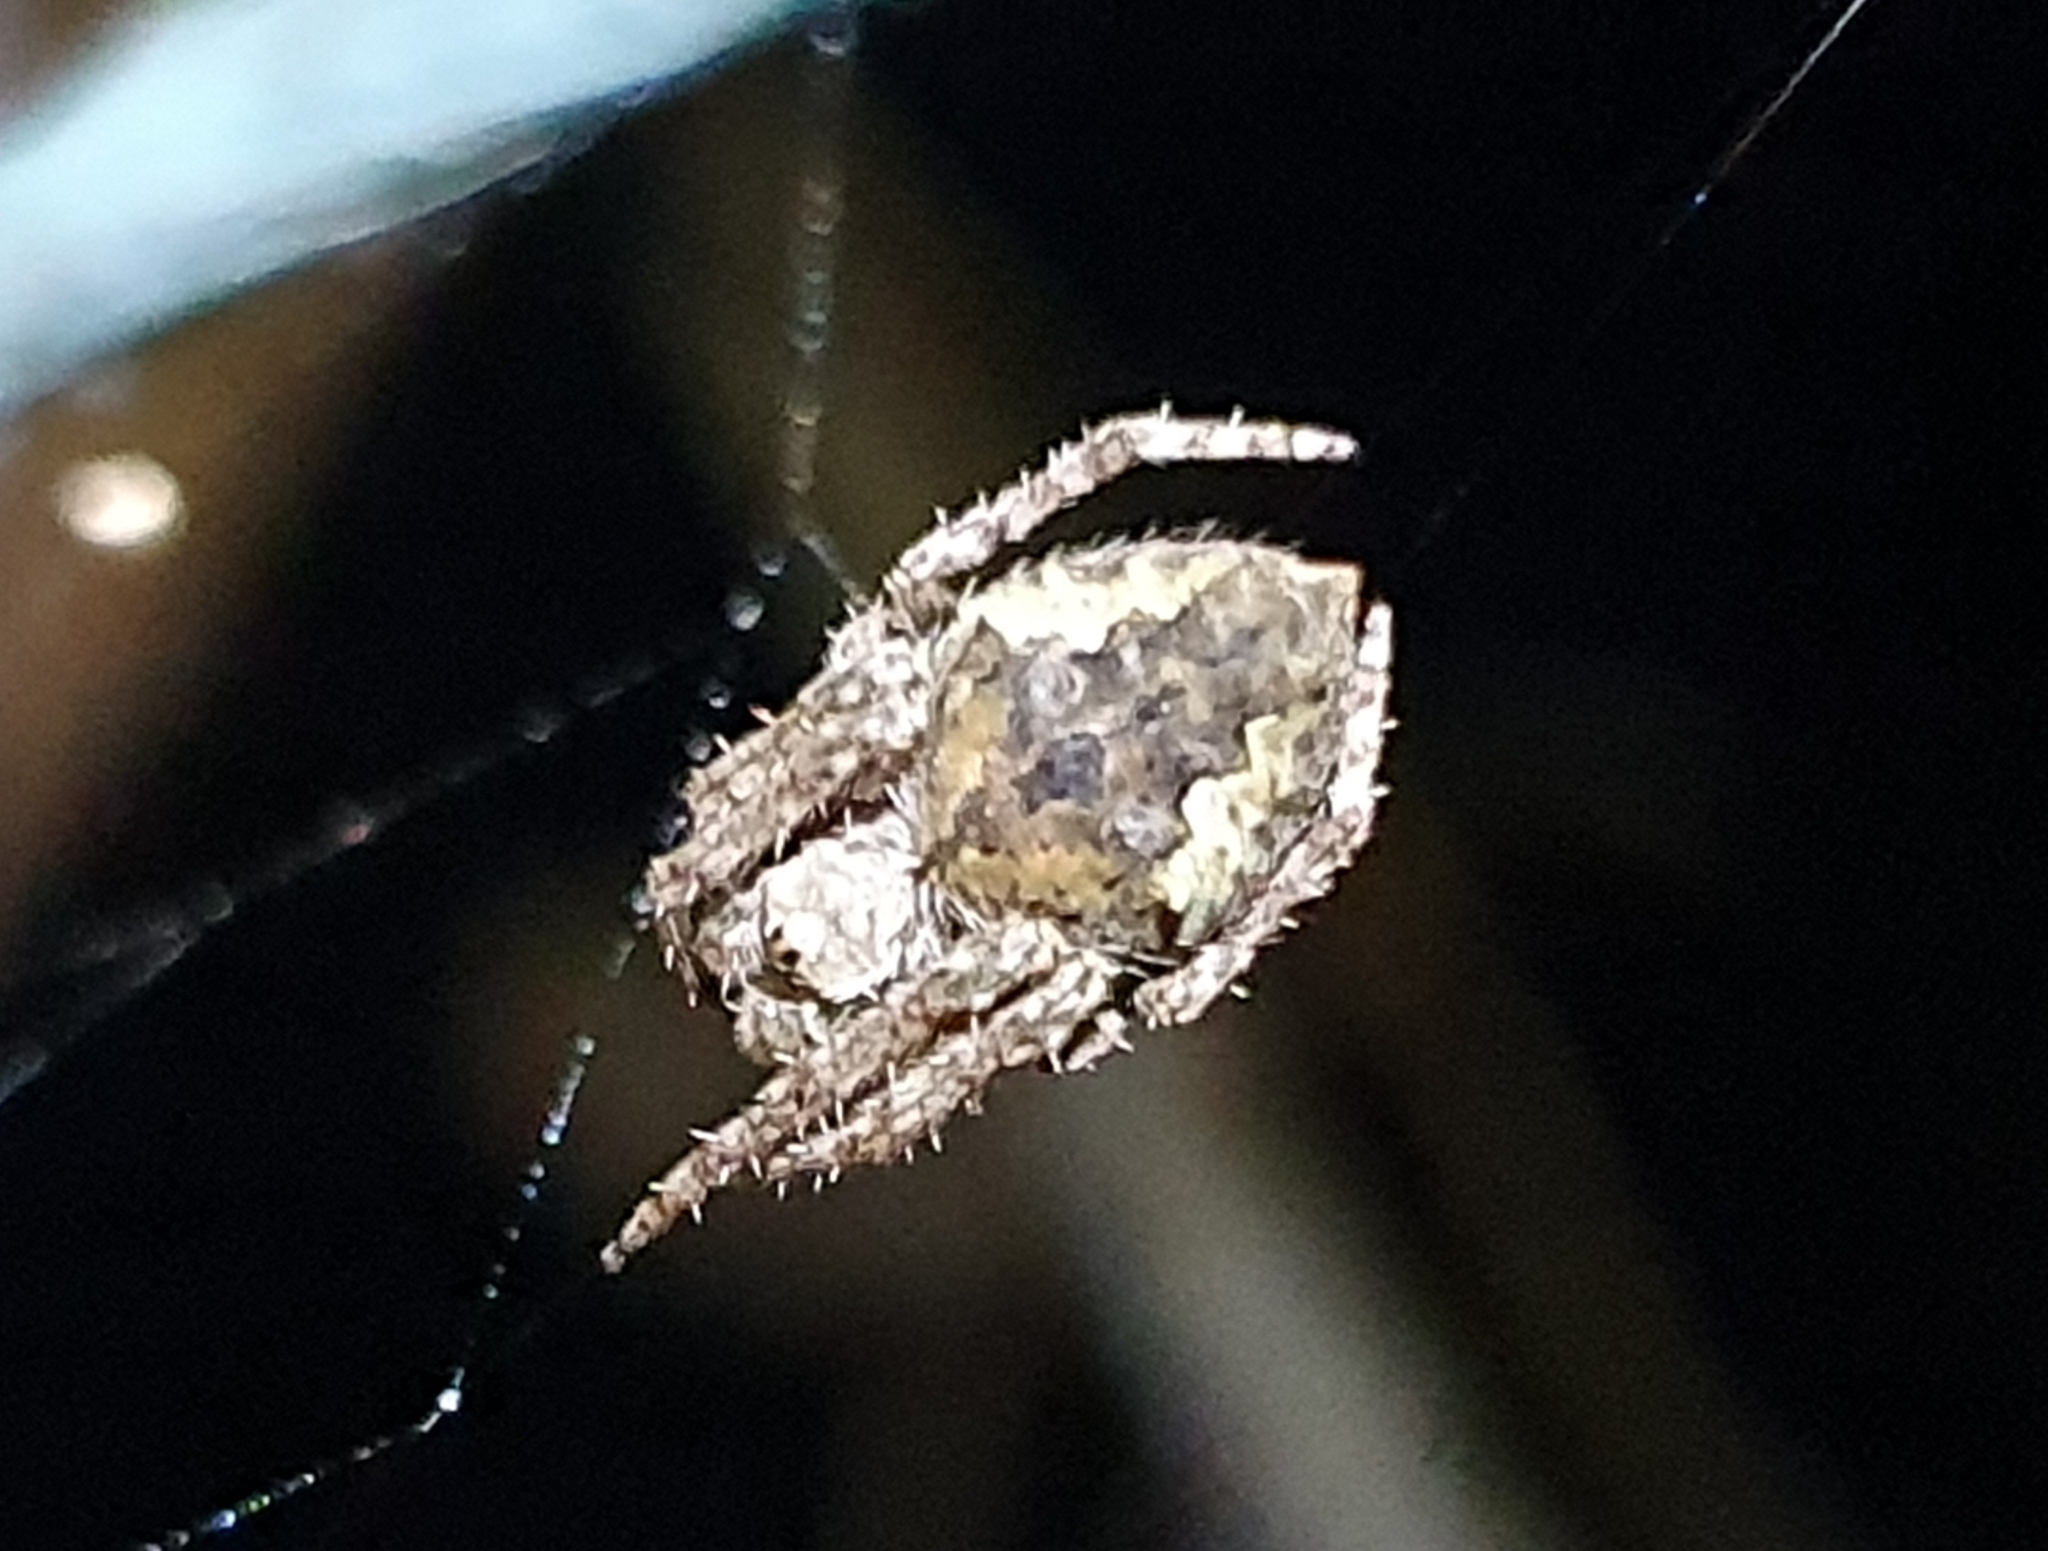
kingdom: Animalia
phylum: Arthropoda
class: Arachnida
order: Araneae
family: Araneidae
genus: Eriophora
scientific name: Eriophora pustulosa
